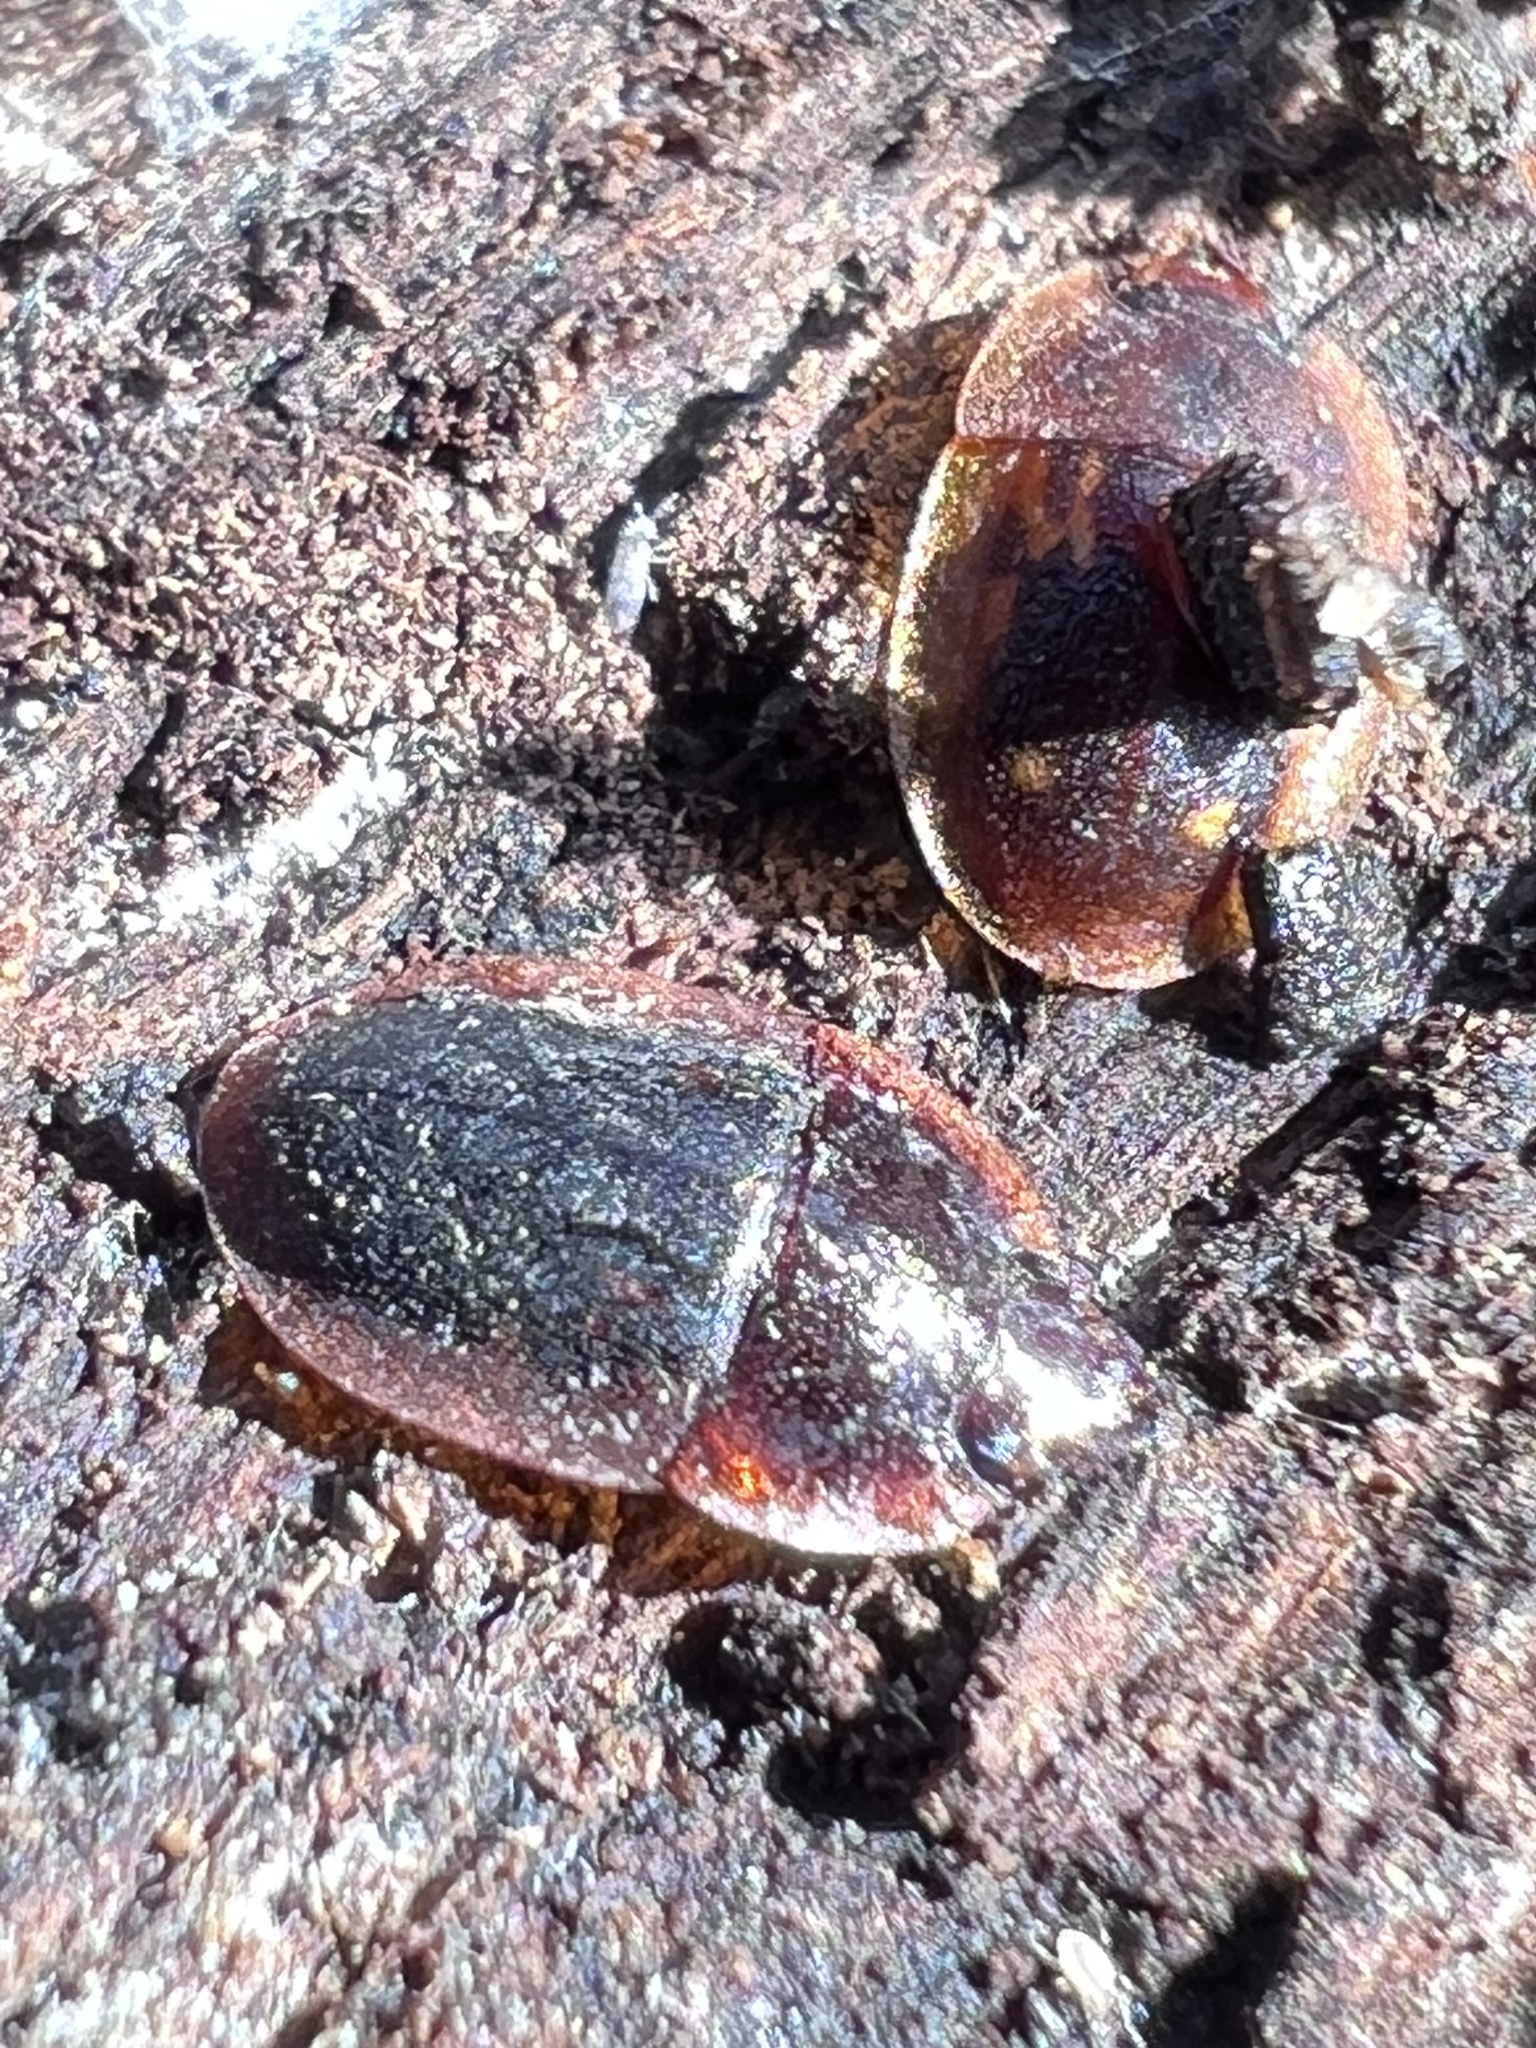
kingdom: Animalia
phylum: Arthropoda
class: Insecta
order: Coleoptera
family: Nitidulidae
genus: Prometopia
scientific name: Prometopia sexmaculata
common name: Six-spotted sap-feeding beetle
